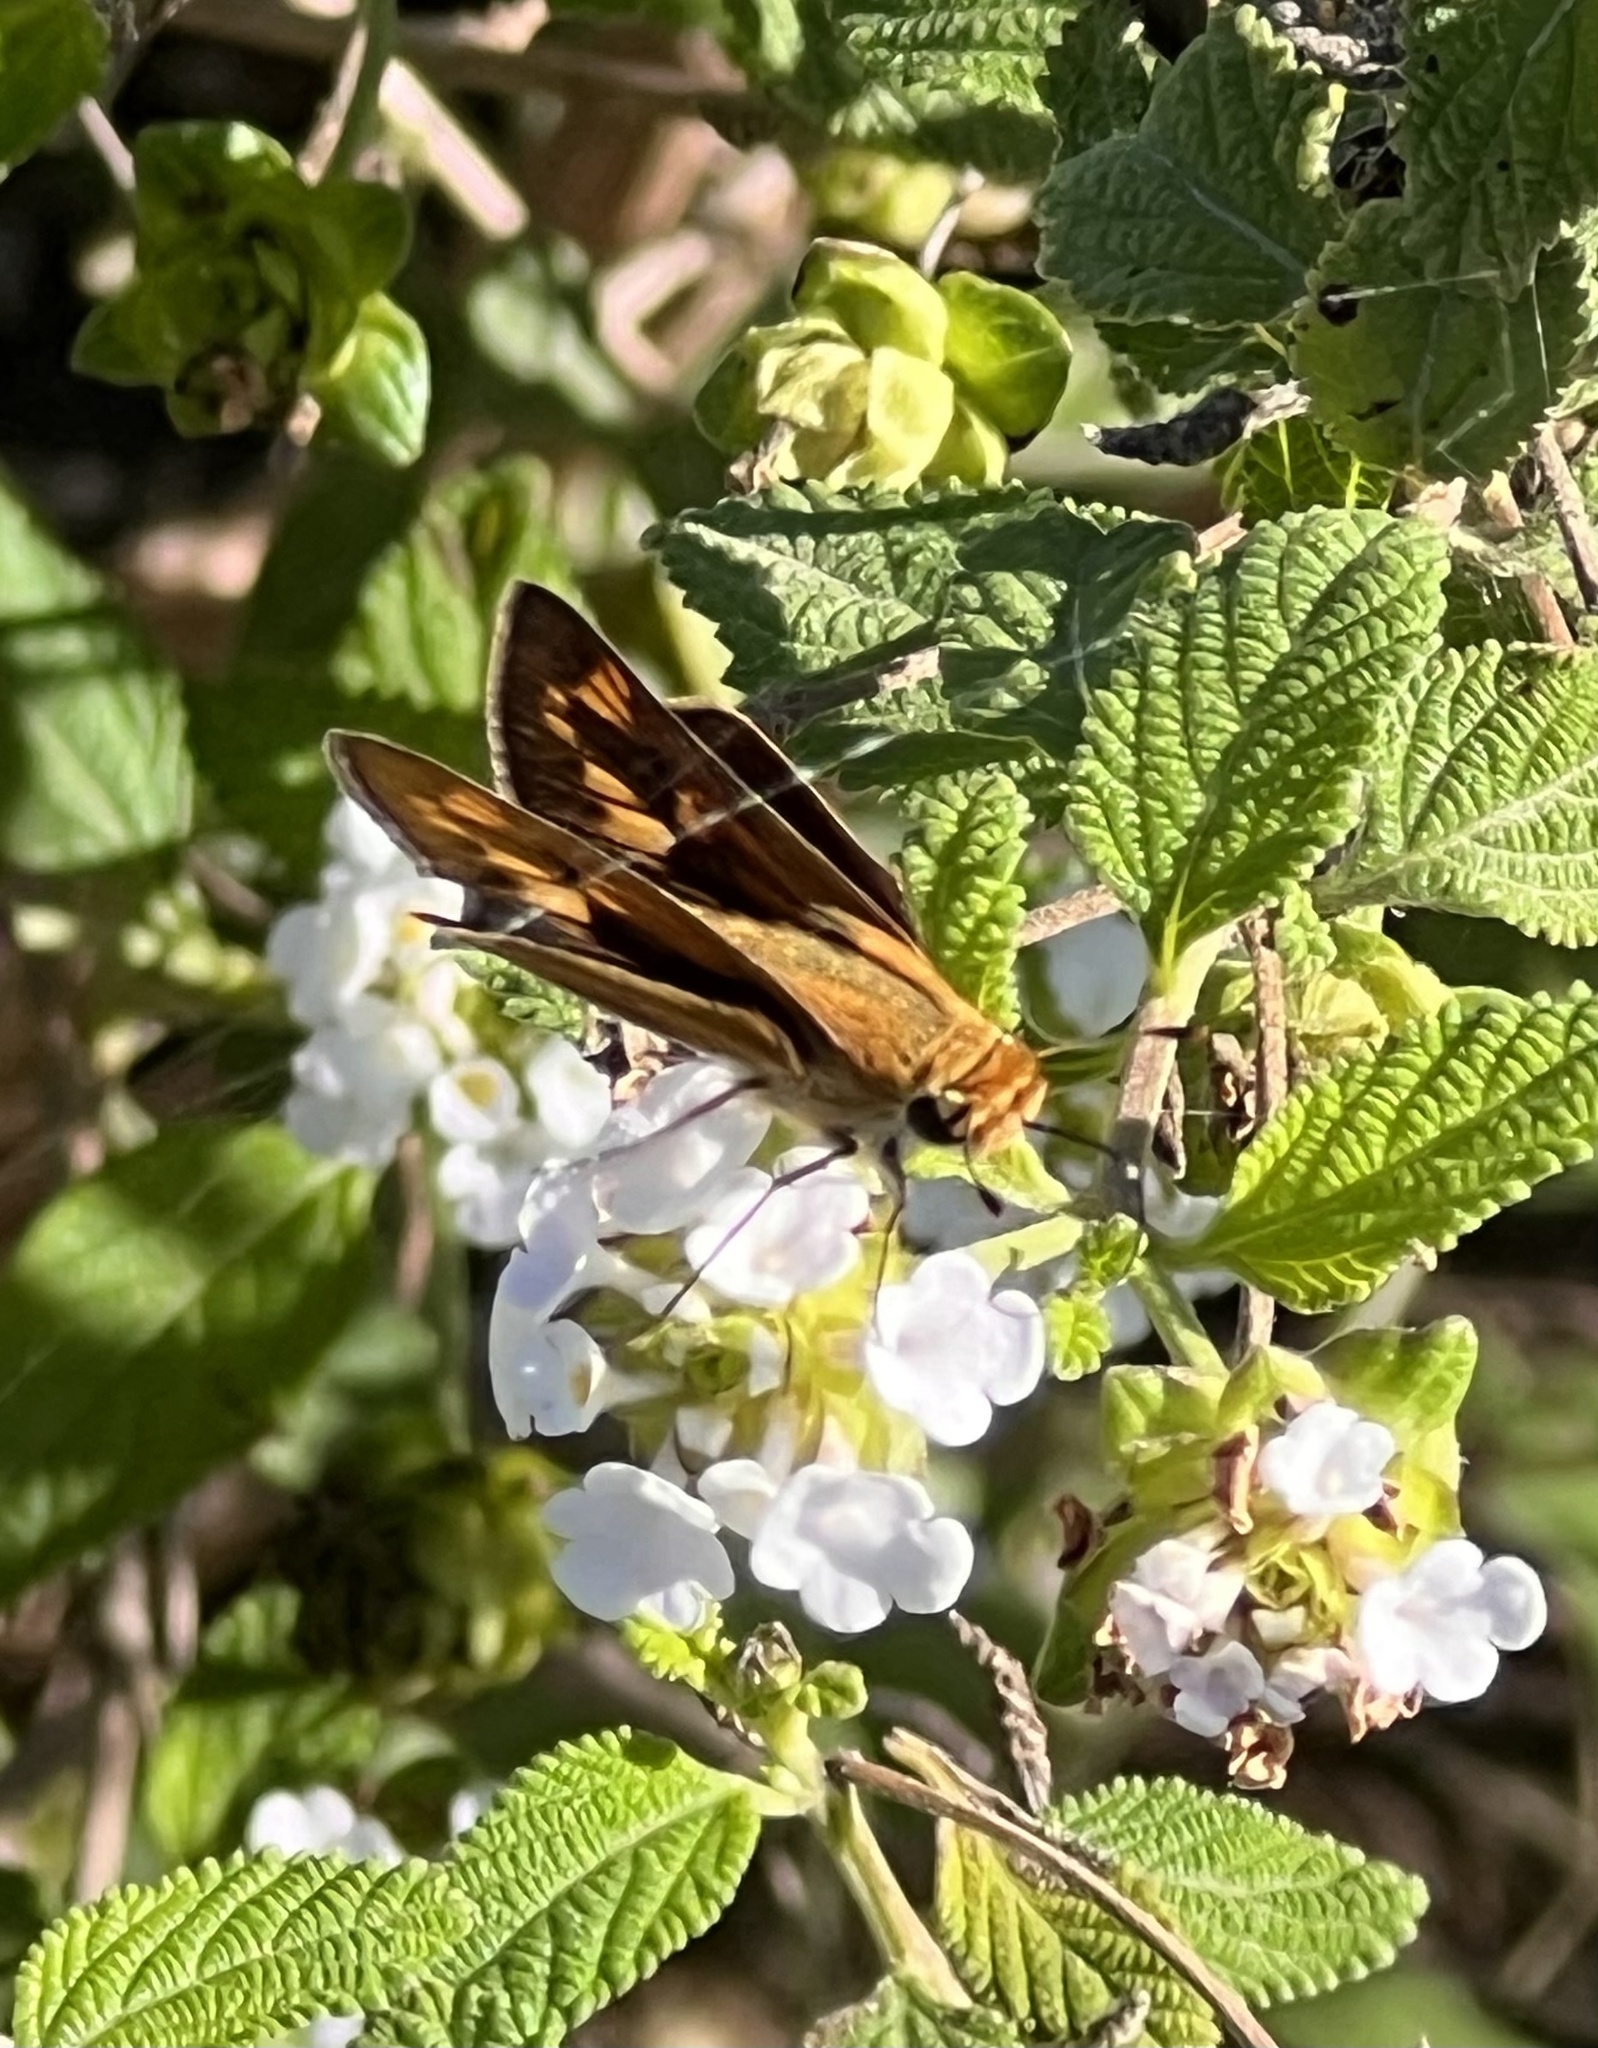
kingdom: Animalia
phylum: Arthropoda
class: Insecta
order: Lepidoptera
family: Hesperiidae
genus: Hylephila
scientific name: Hylephila phyleus
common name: Fiery skipper
